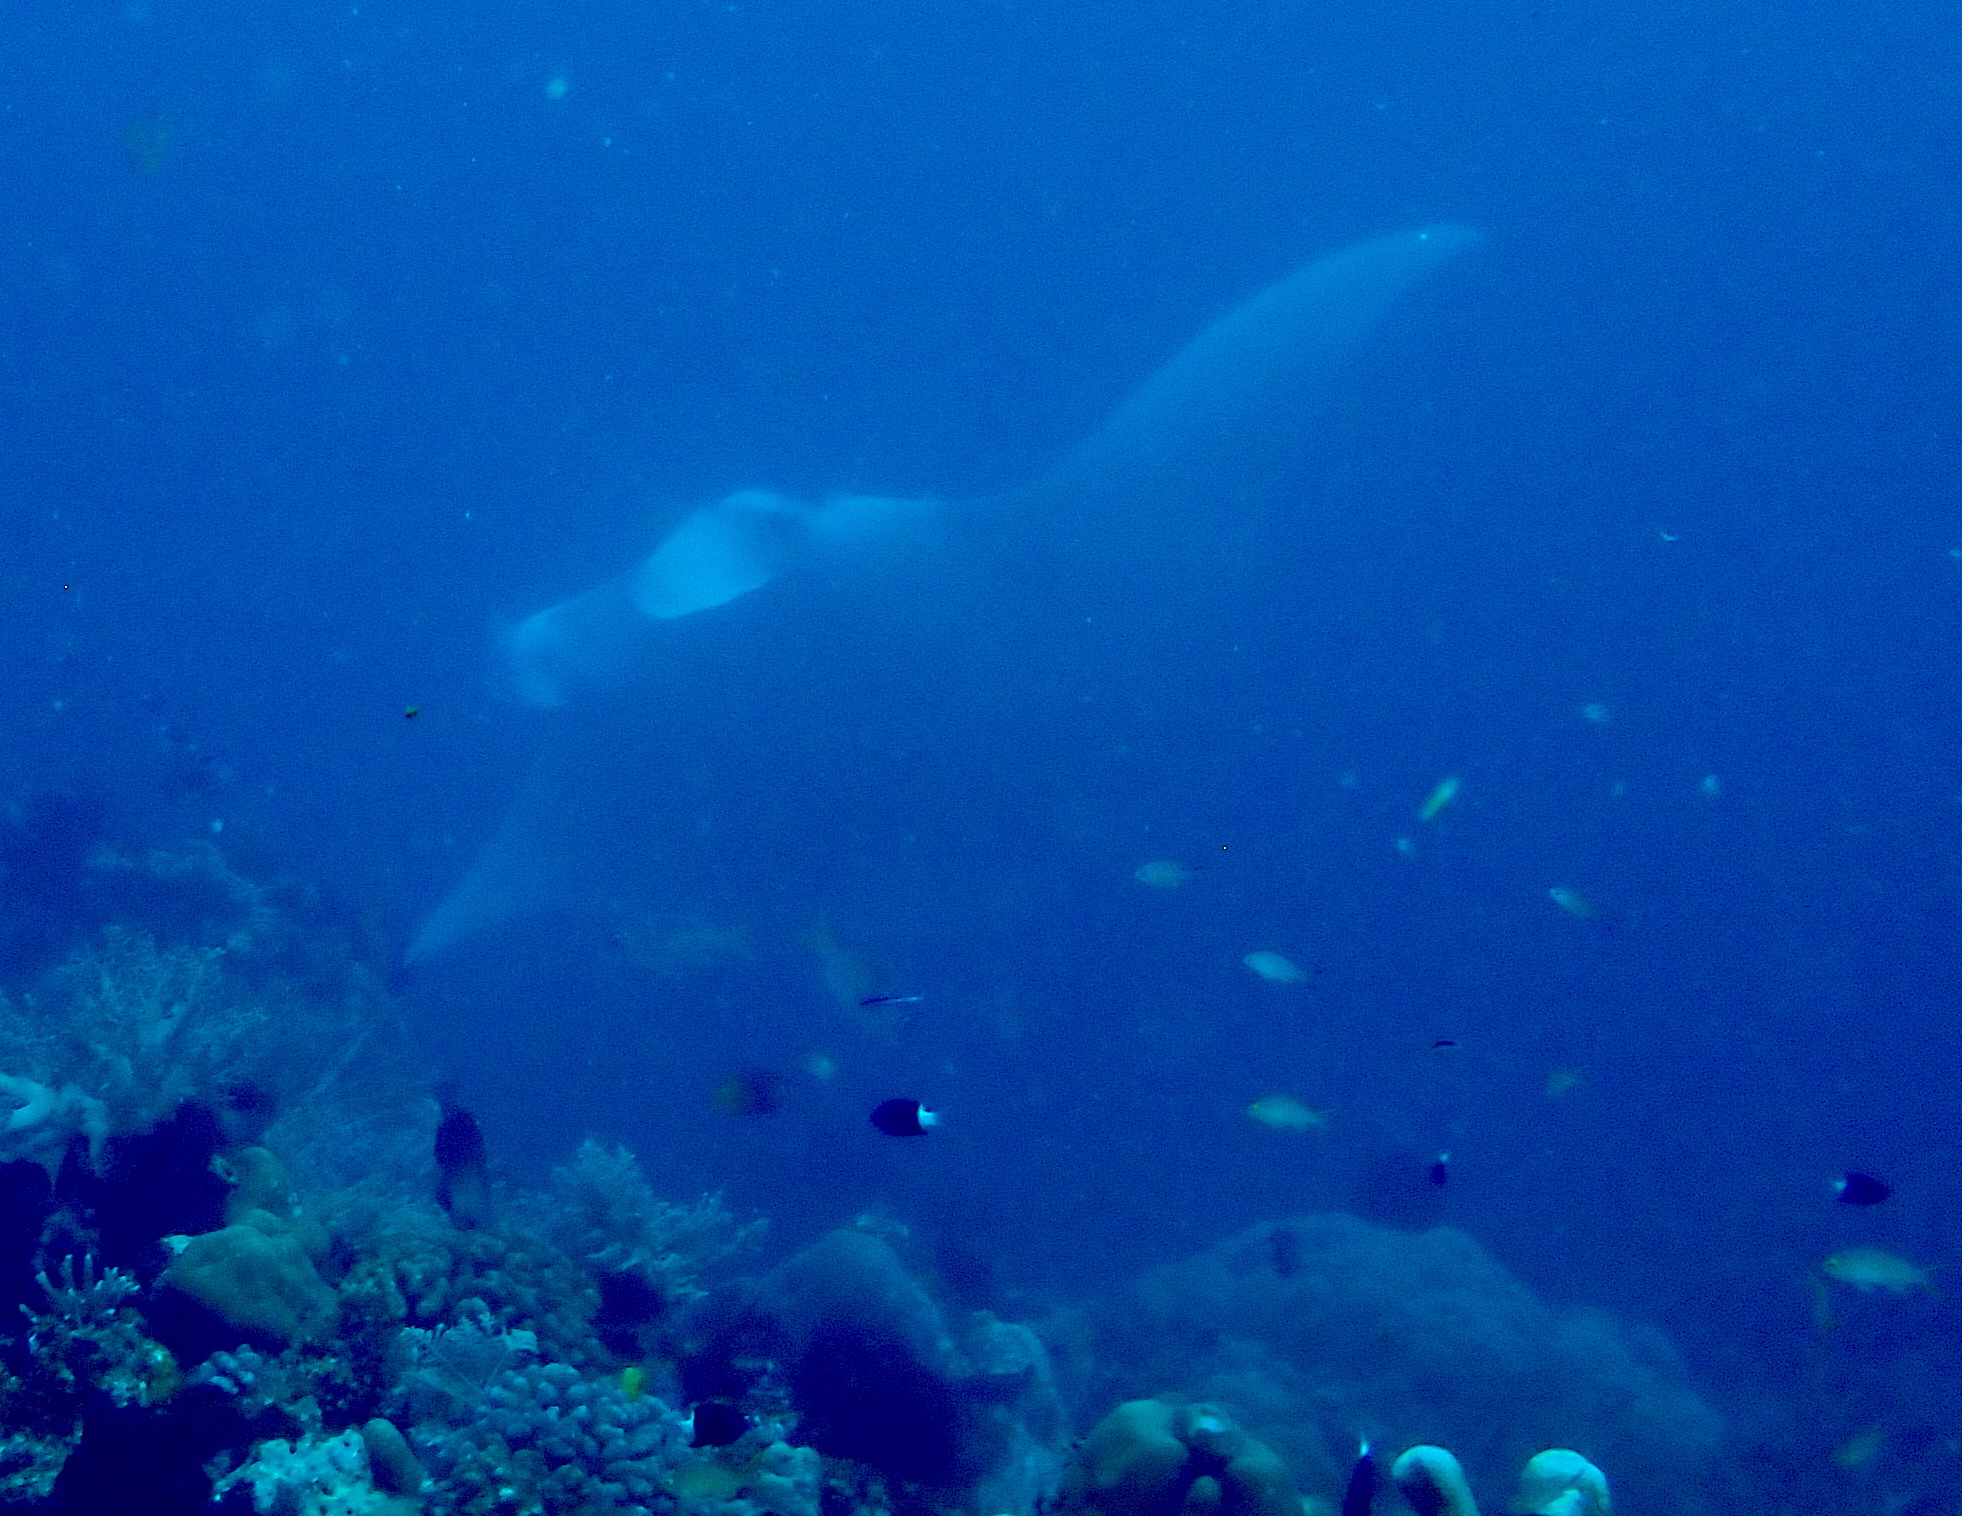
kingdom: Animalia
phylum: Chordata
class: Elasmobranchii
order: Myliobatiformes
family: Myliobatidae
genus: Mobula
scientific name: Mobula alfredi
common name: Reef manta ray
